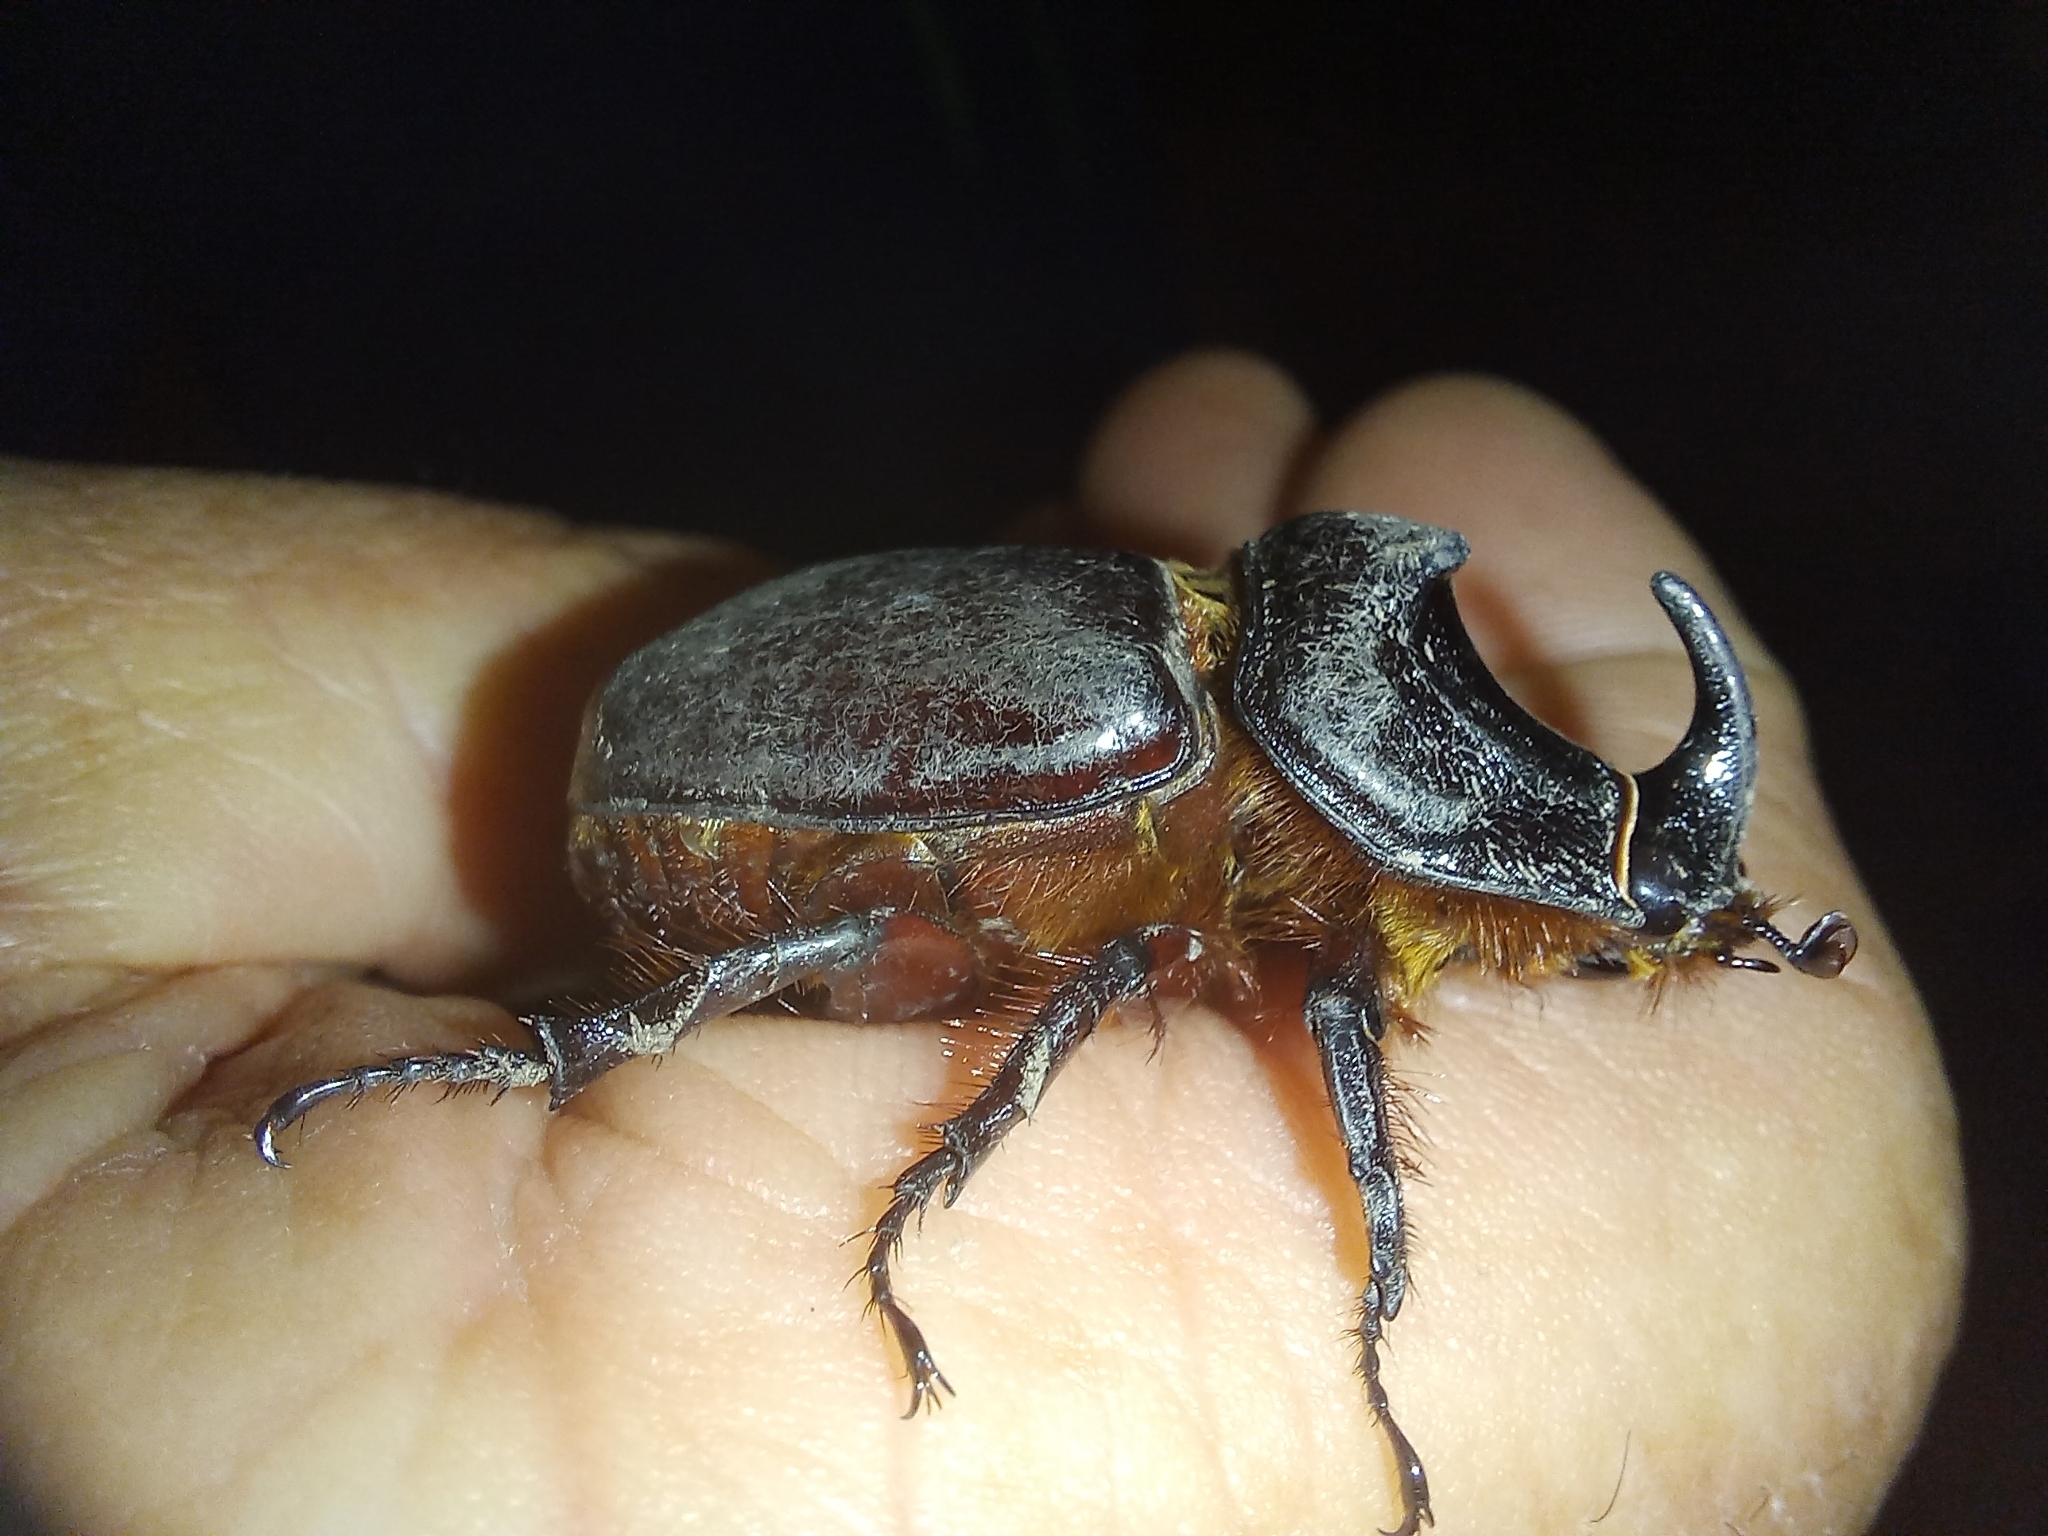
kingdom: Animalia
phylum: Arthropoda
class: Insecta
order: Coleoptera
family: Scarabaeidae
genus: Oryctes
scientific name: Oryctes nasicornis
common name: European rhinoceros beetle
